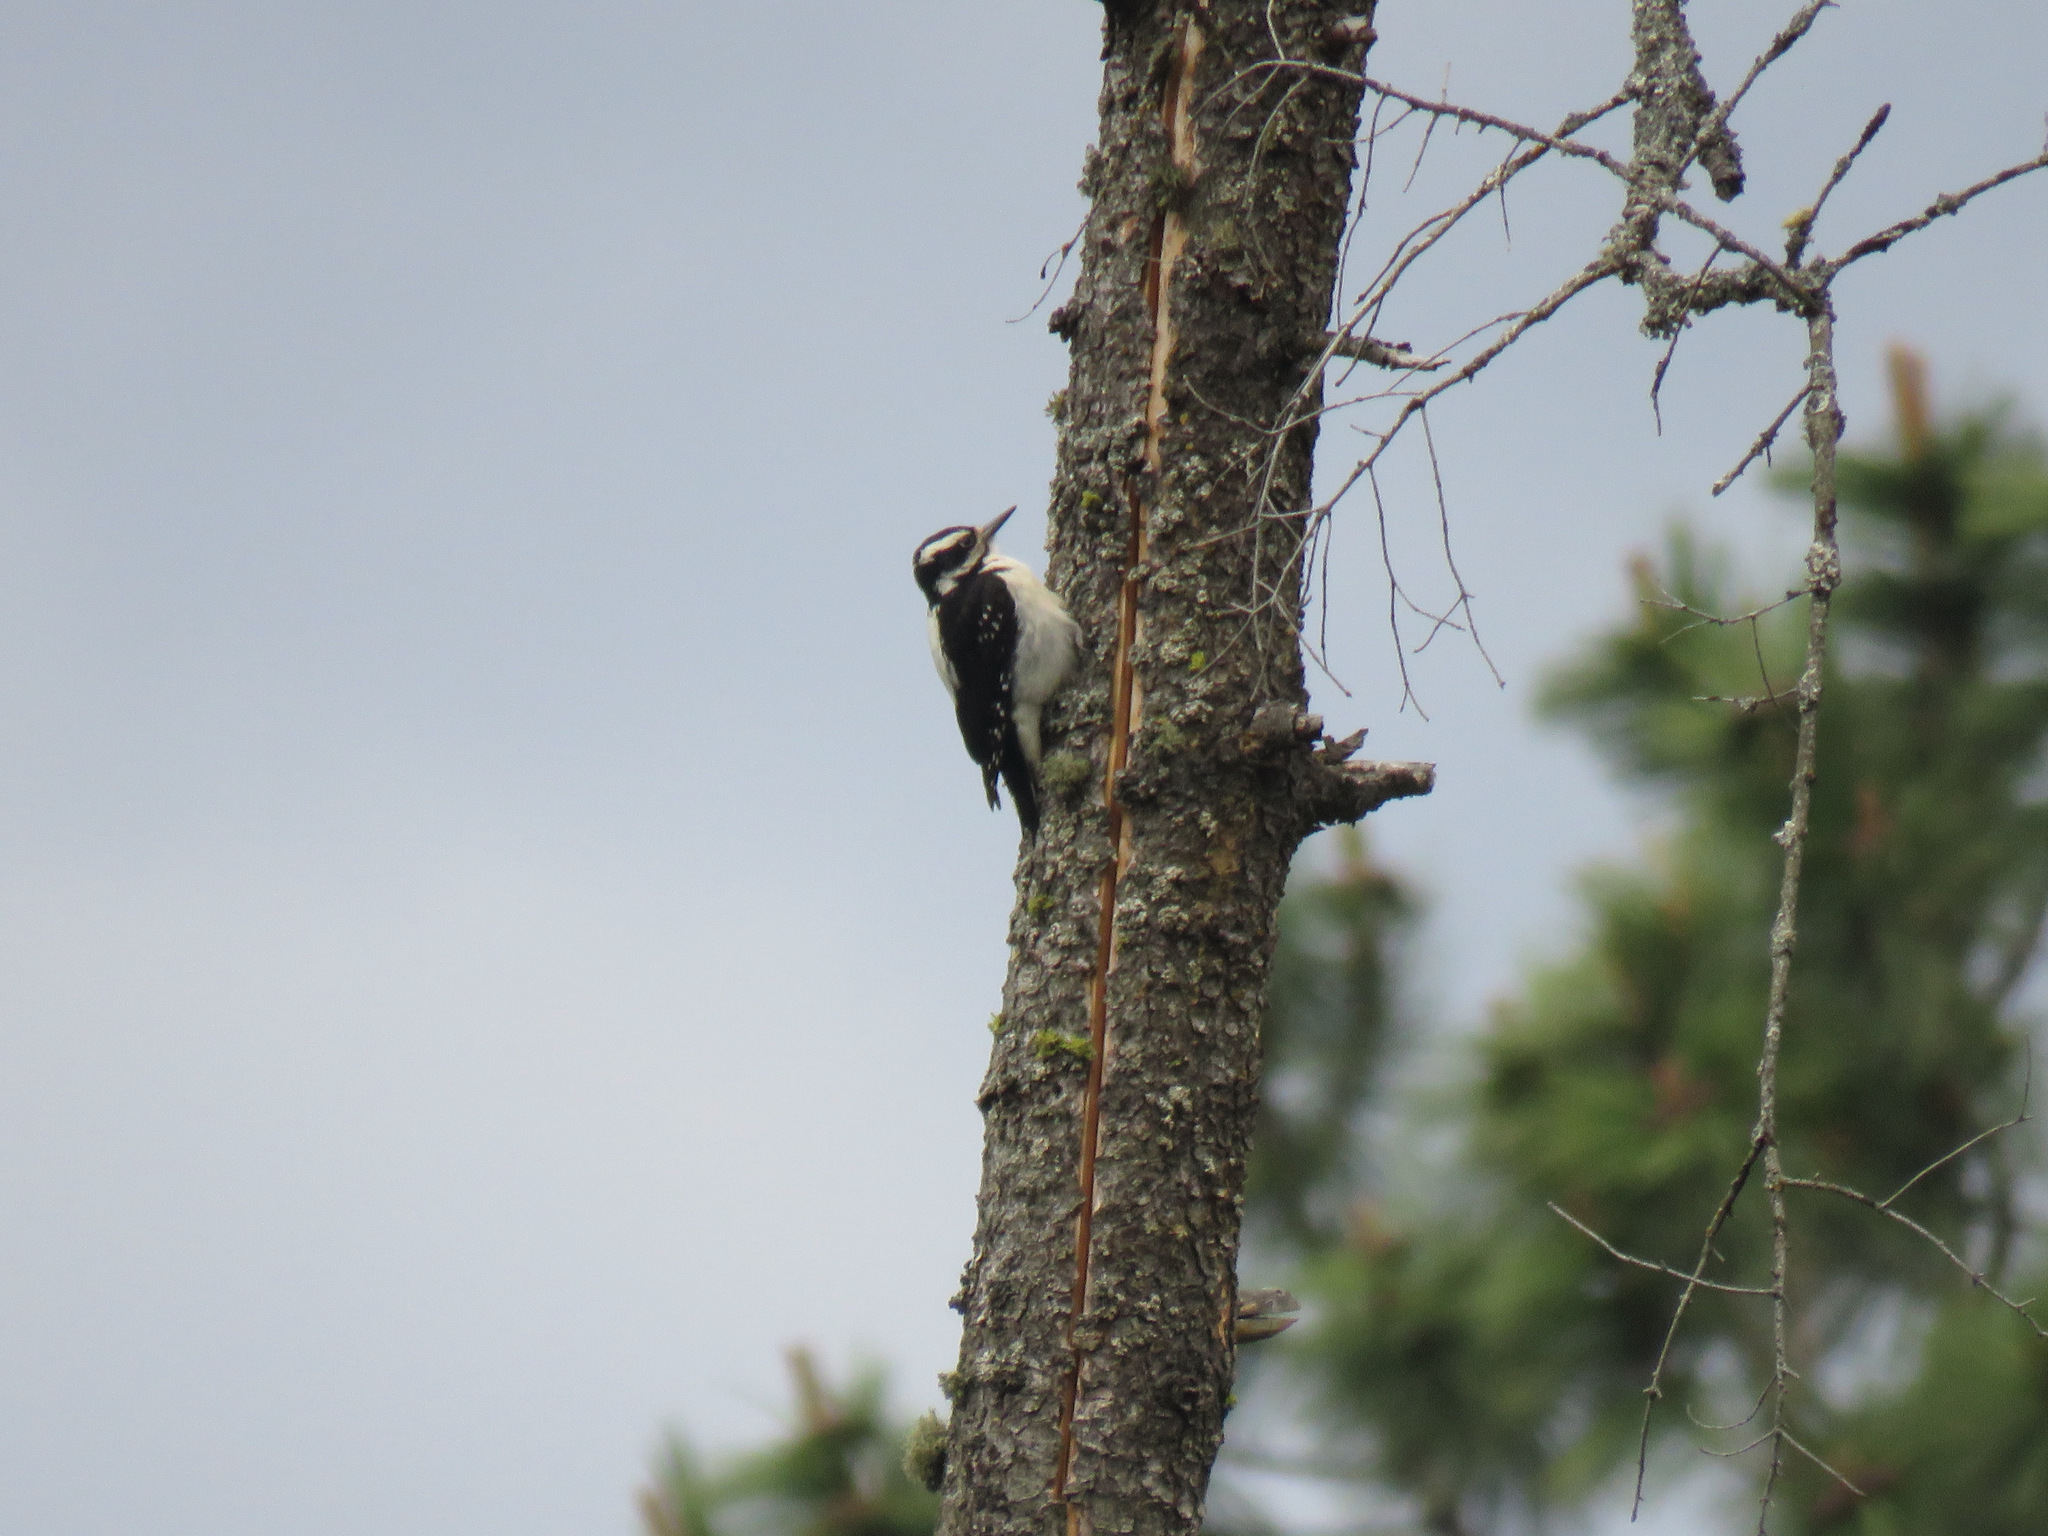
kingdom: Animalia
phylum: Chordata
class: Aves
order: Piciformes
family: Picidae
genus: Leuconotopicus
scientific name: Leuconotopicus villosus
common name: Hairy woodpecker
